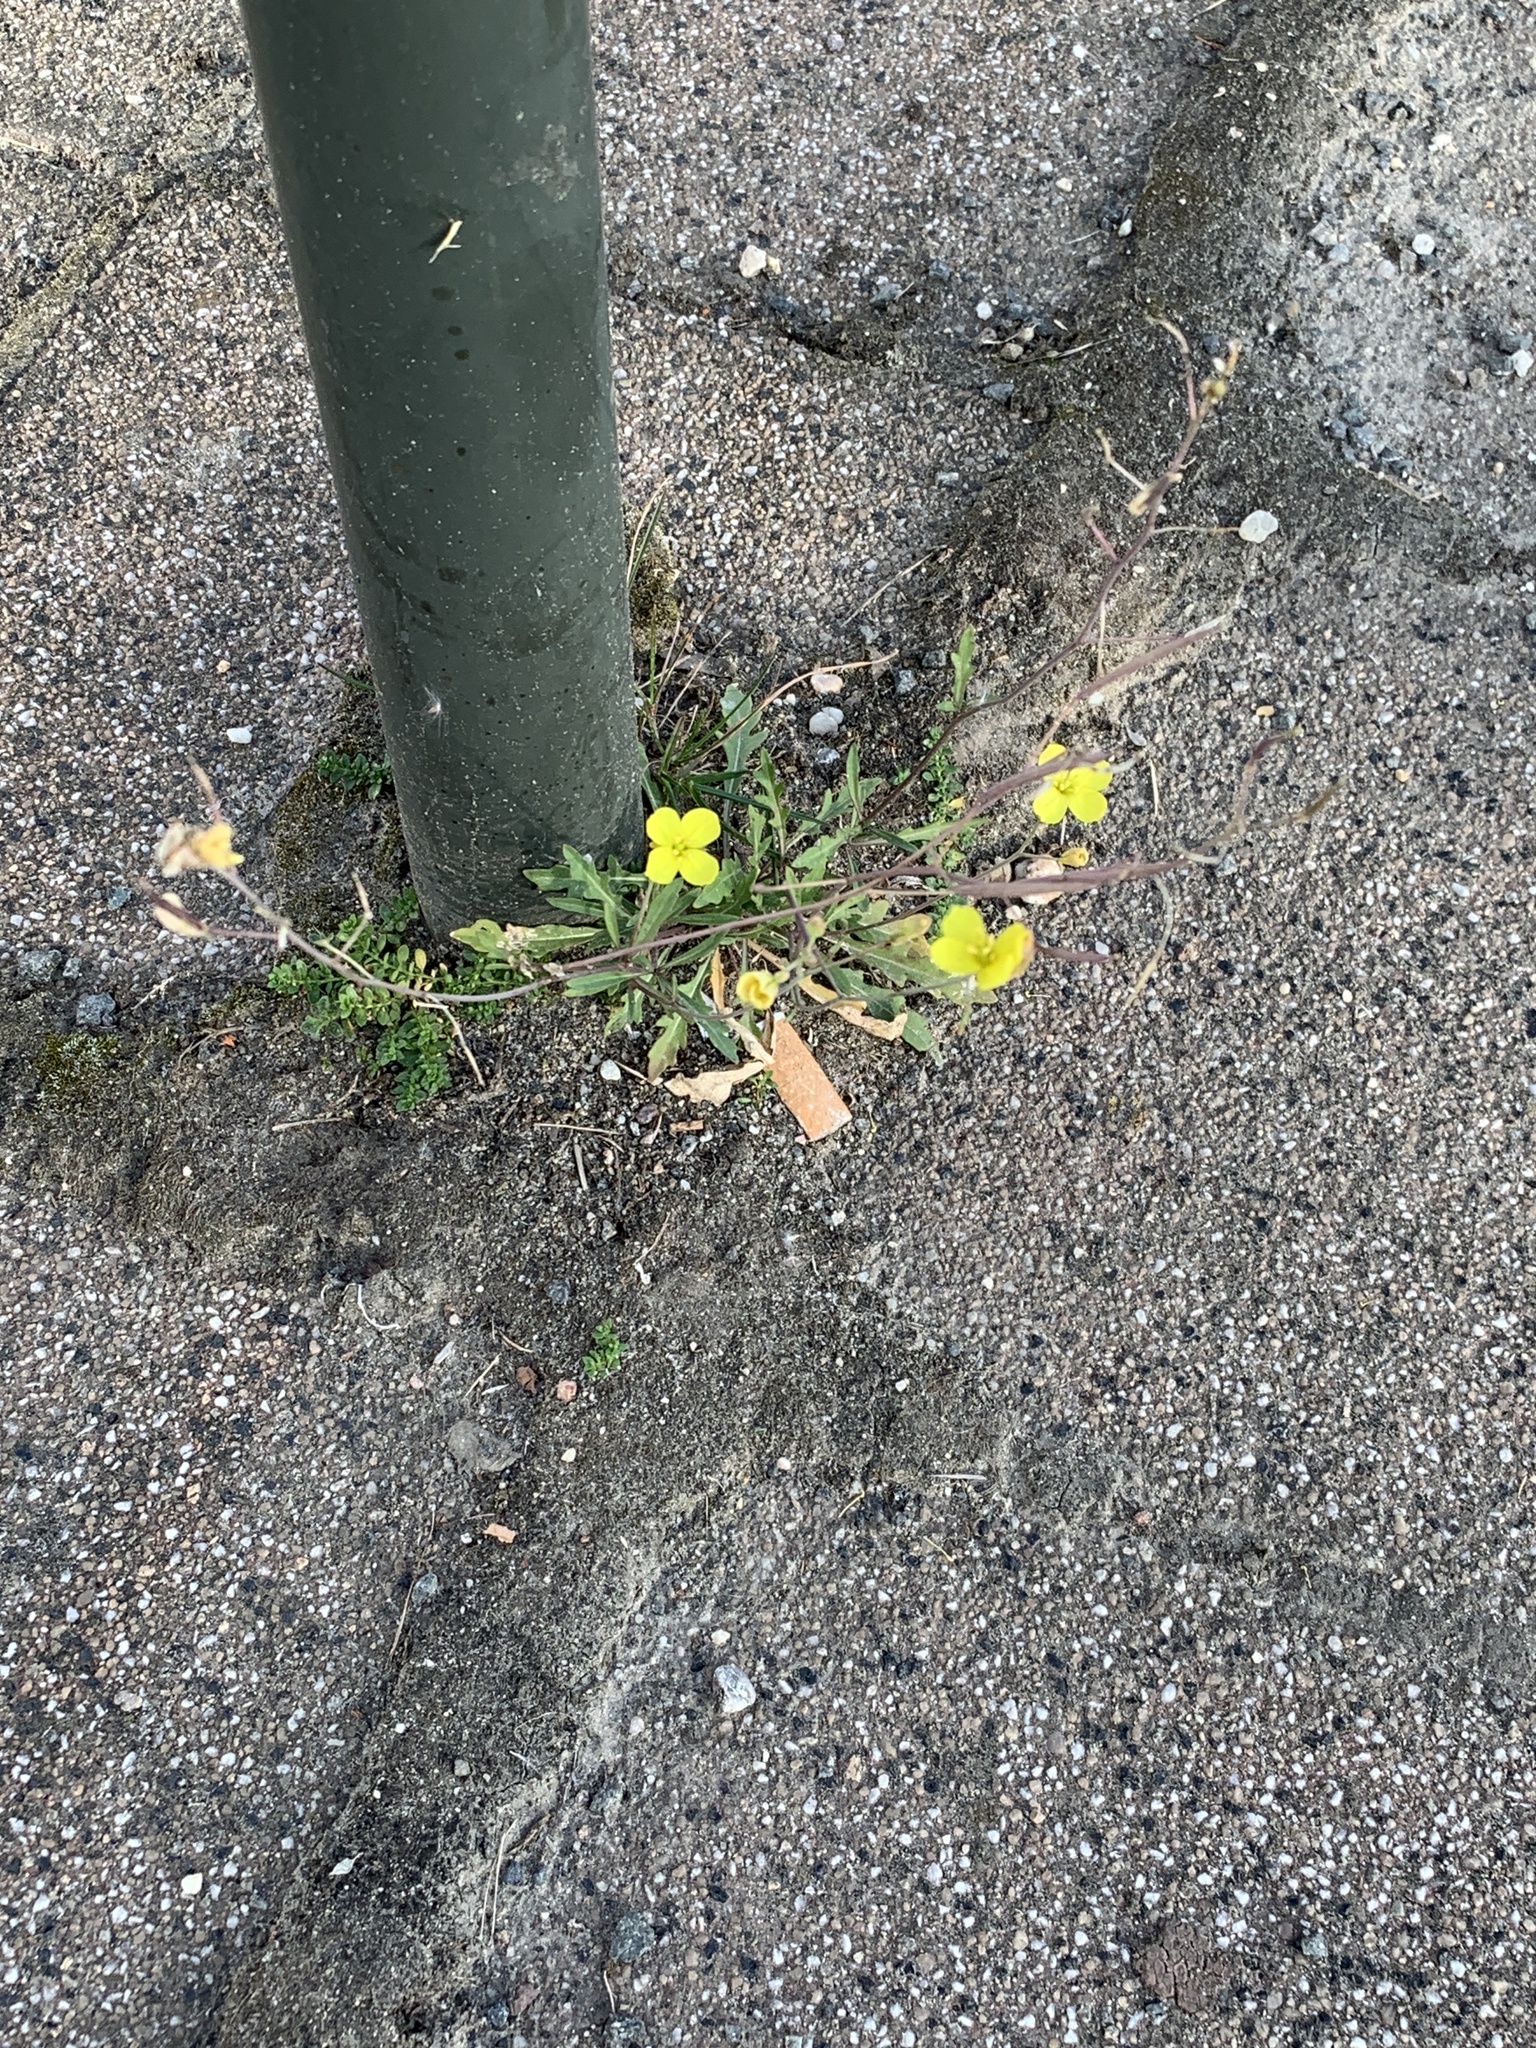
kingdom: Plantae
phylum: Tracheophyta
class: Magnoliopsida
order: Brassicales
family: Brassicaceae
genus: Diplotaxis
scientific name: Diplotaxis muralis
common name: Annual wall-rocket
